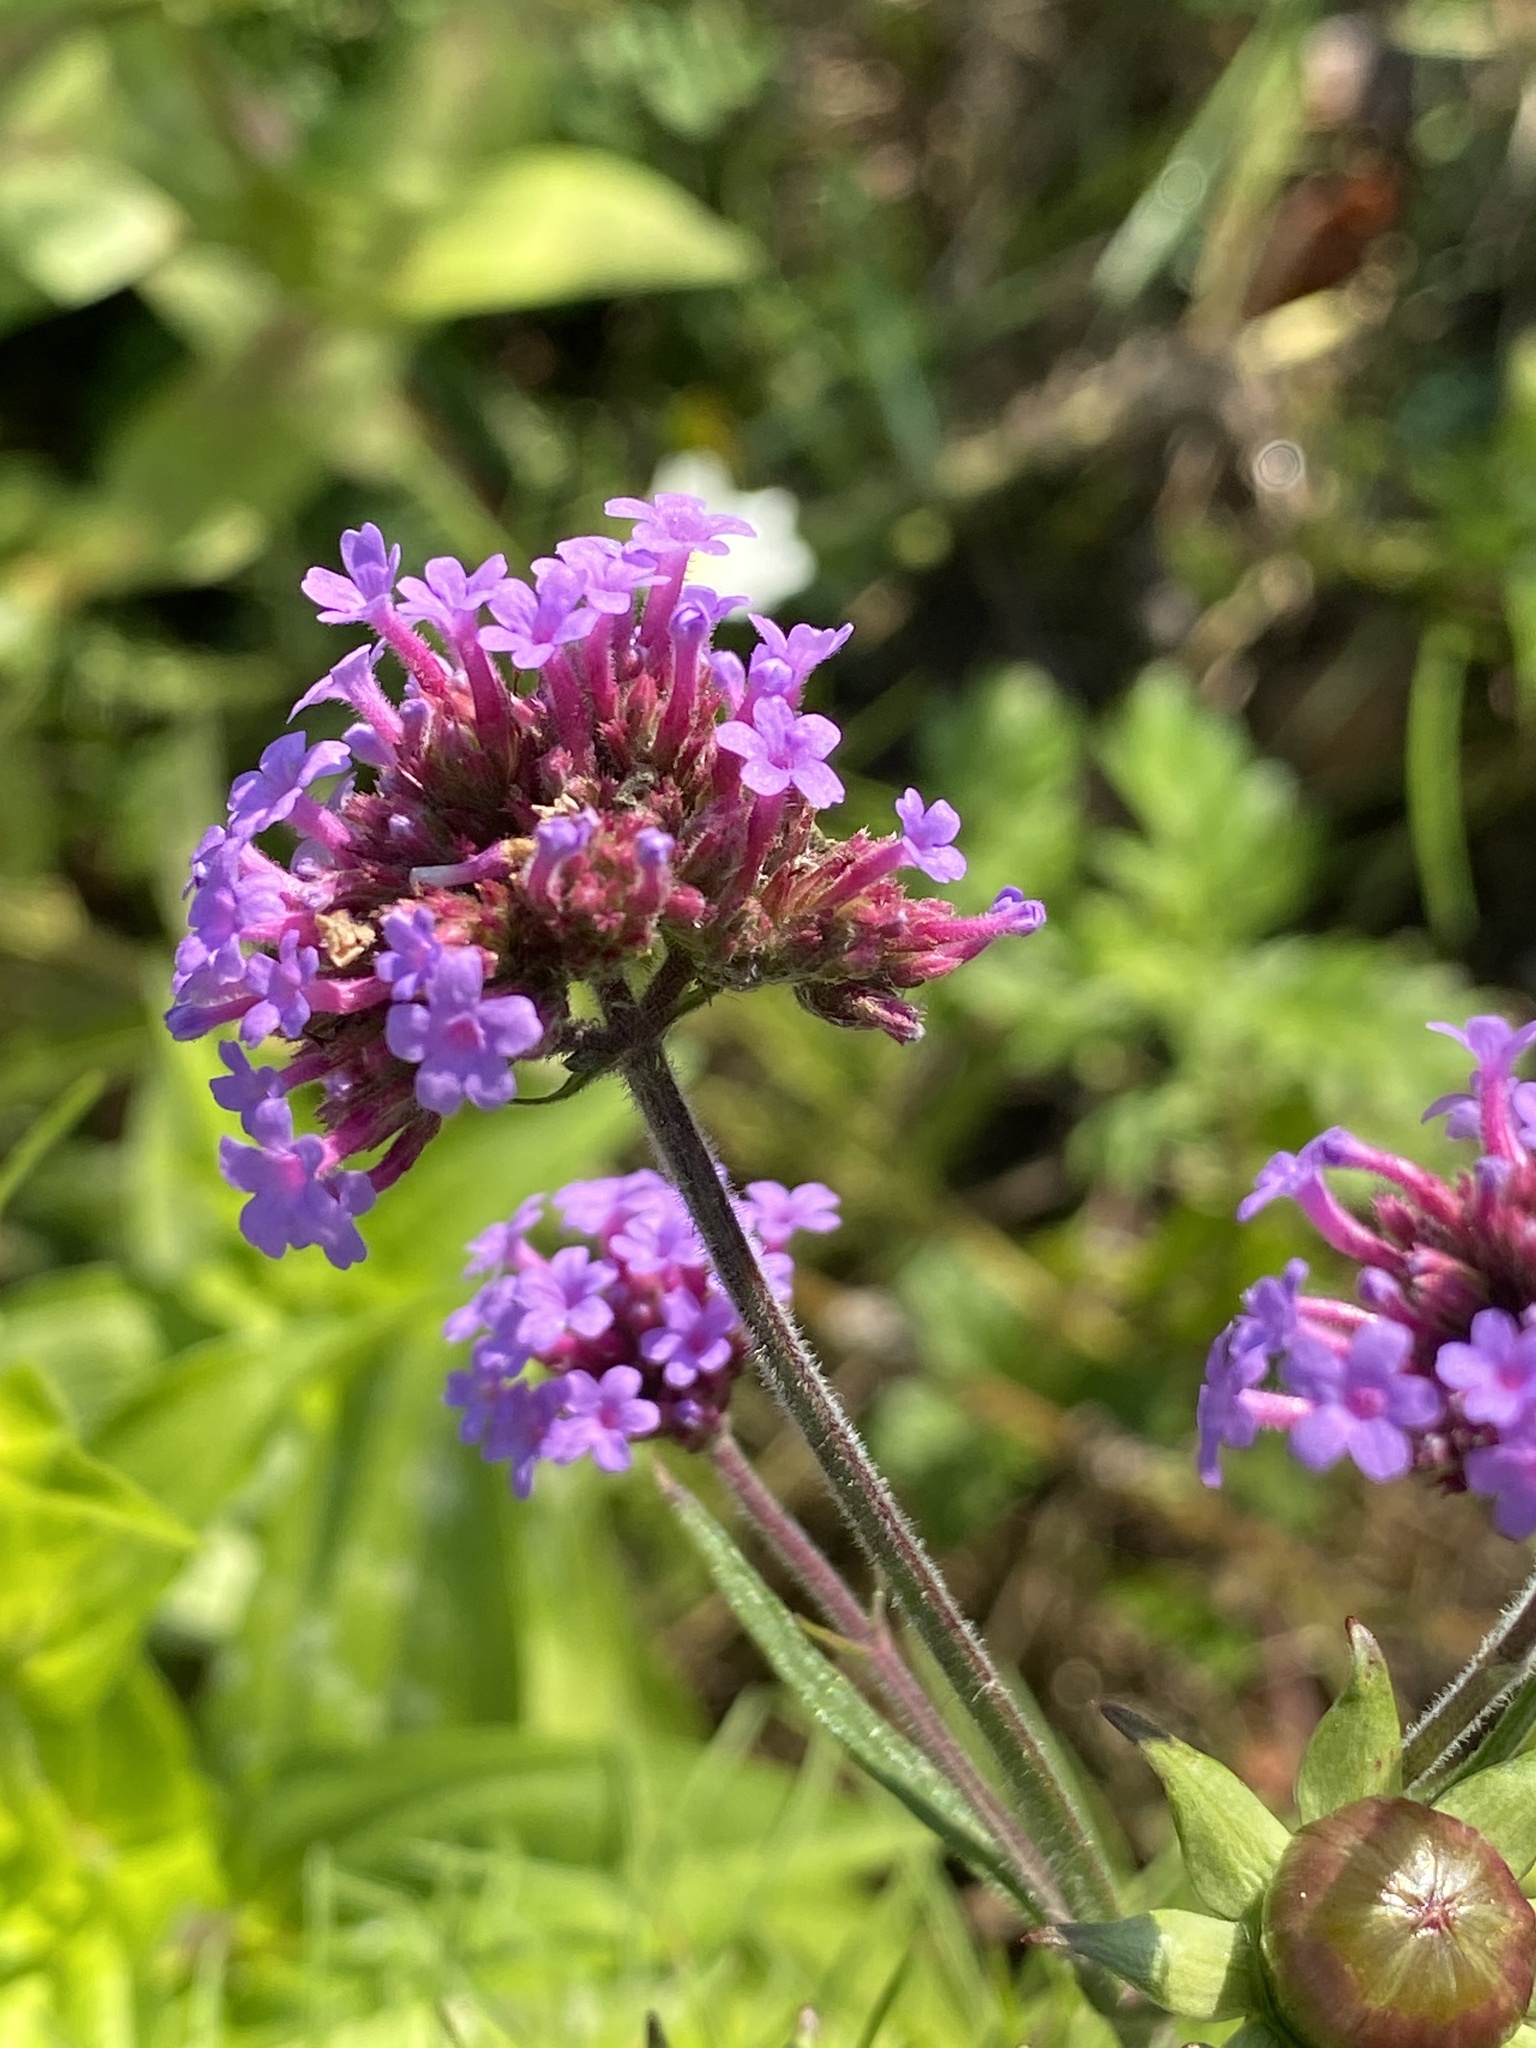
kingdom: Plantae
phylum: Tracheophyta
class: Magnoliopsida
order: Lamiales
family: Verbenaceae
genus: Verbena
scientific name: Verbena bonariensis
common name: Purpletop vervain
